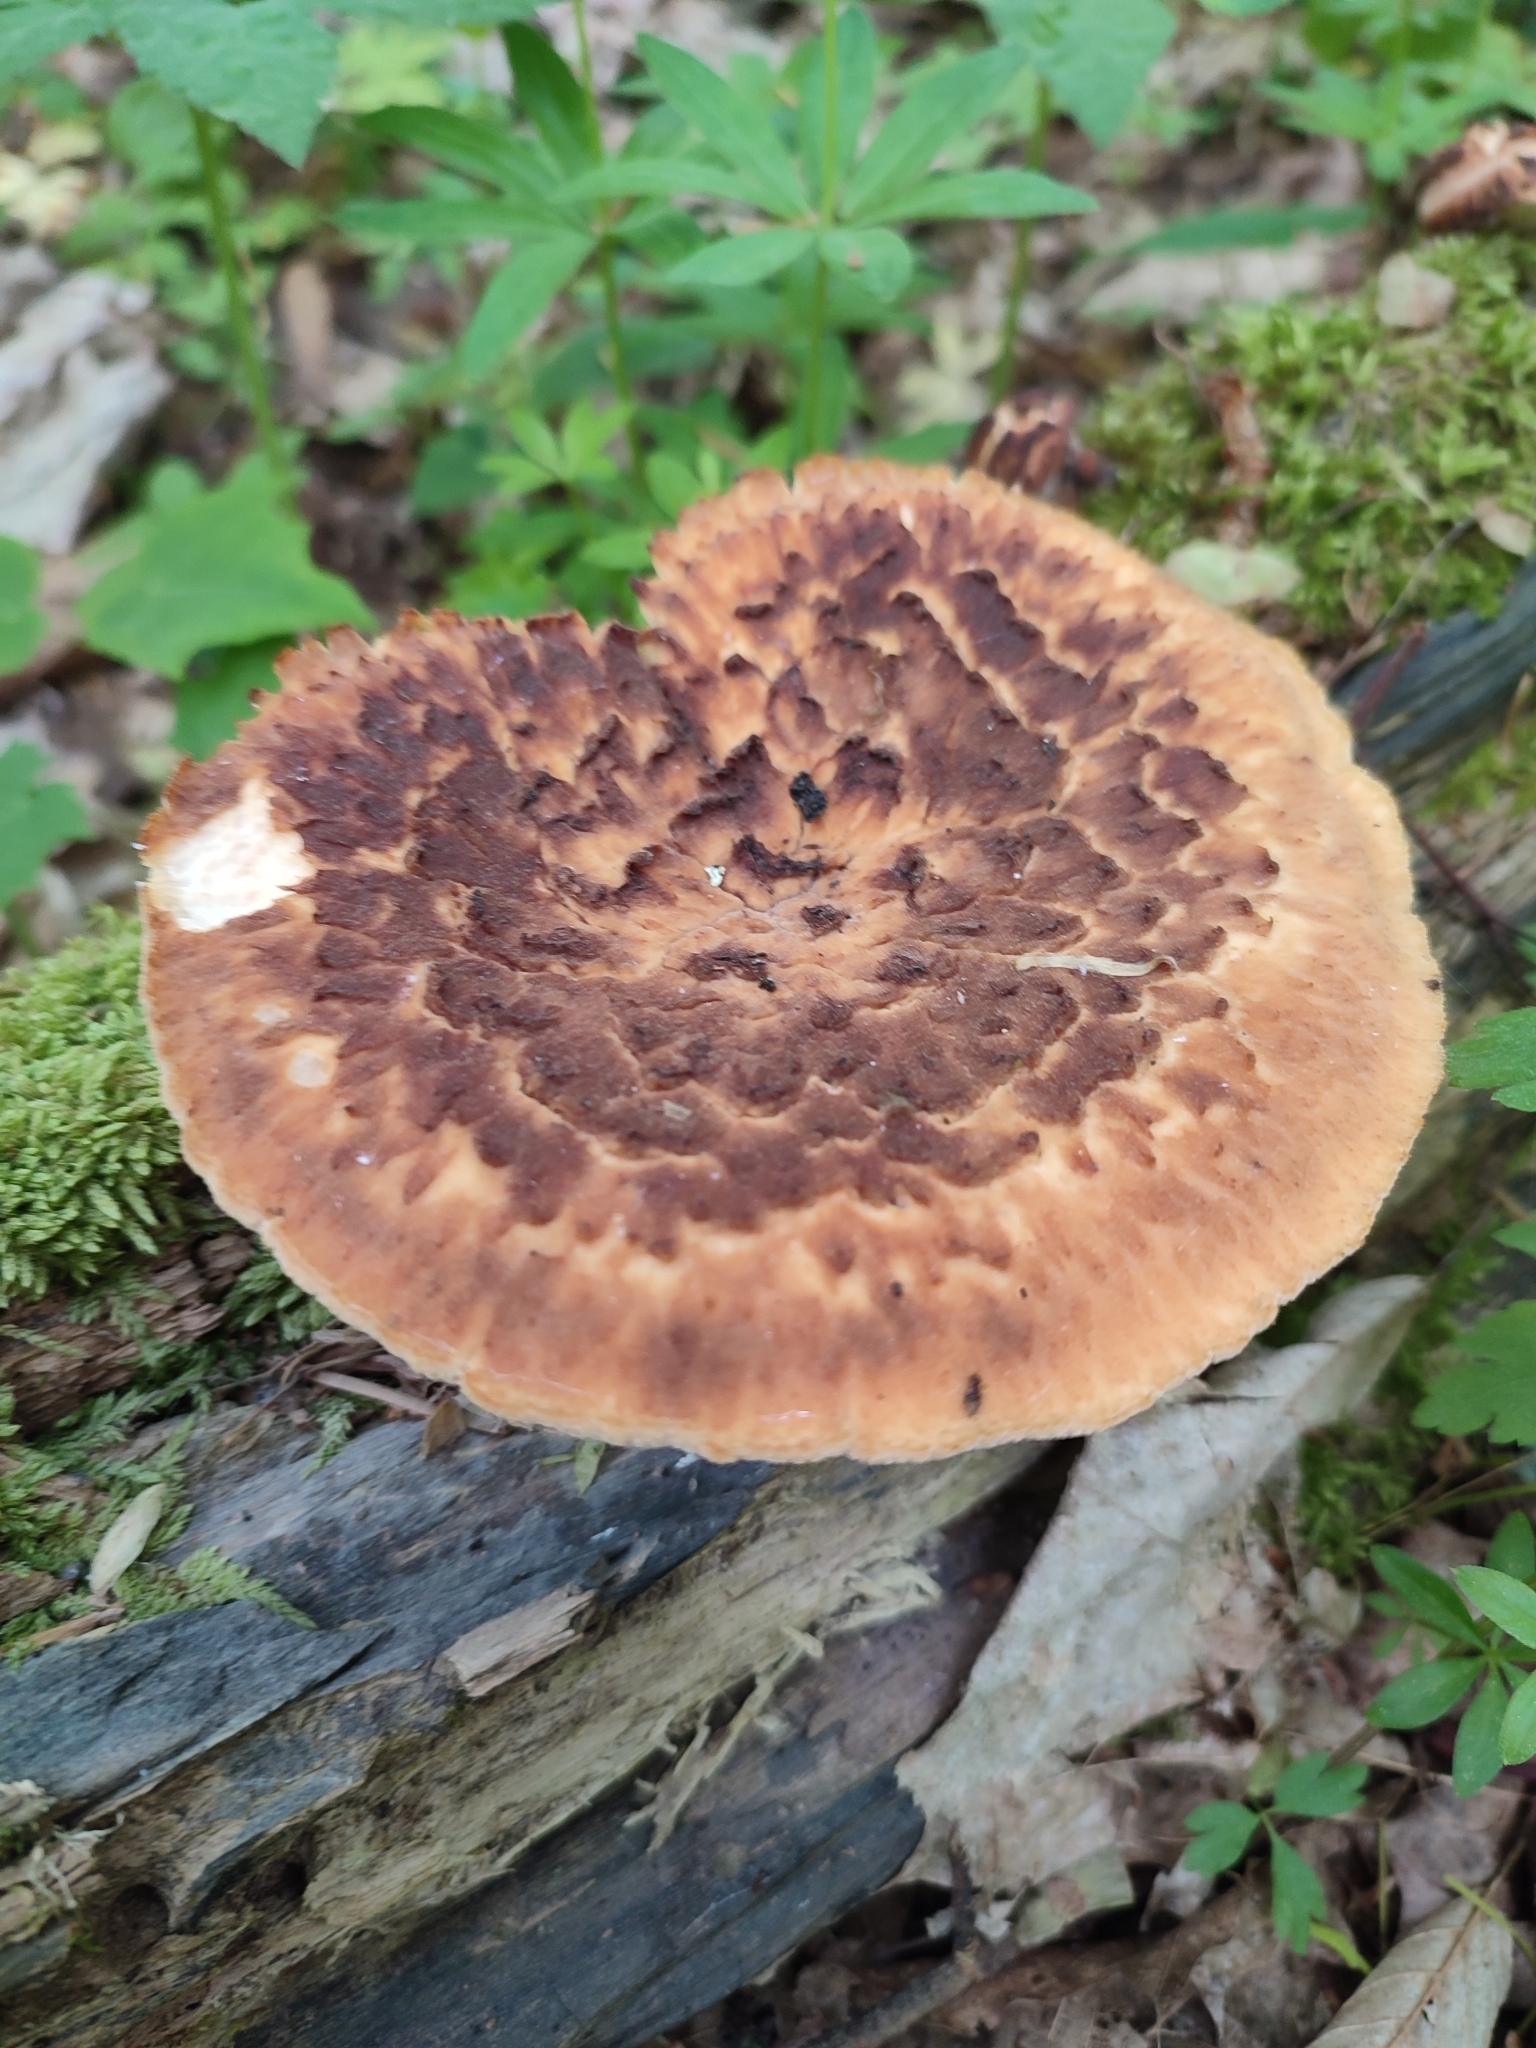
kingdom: Fungi
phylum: Basidiomycota
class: Agaricomycetes
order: Polyporales
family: Polyporaceae
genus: Cerioporus
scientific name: Cerioporus squamosus
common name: Dryad's saddle
